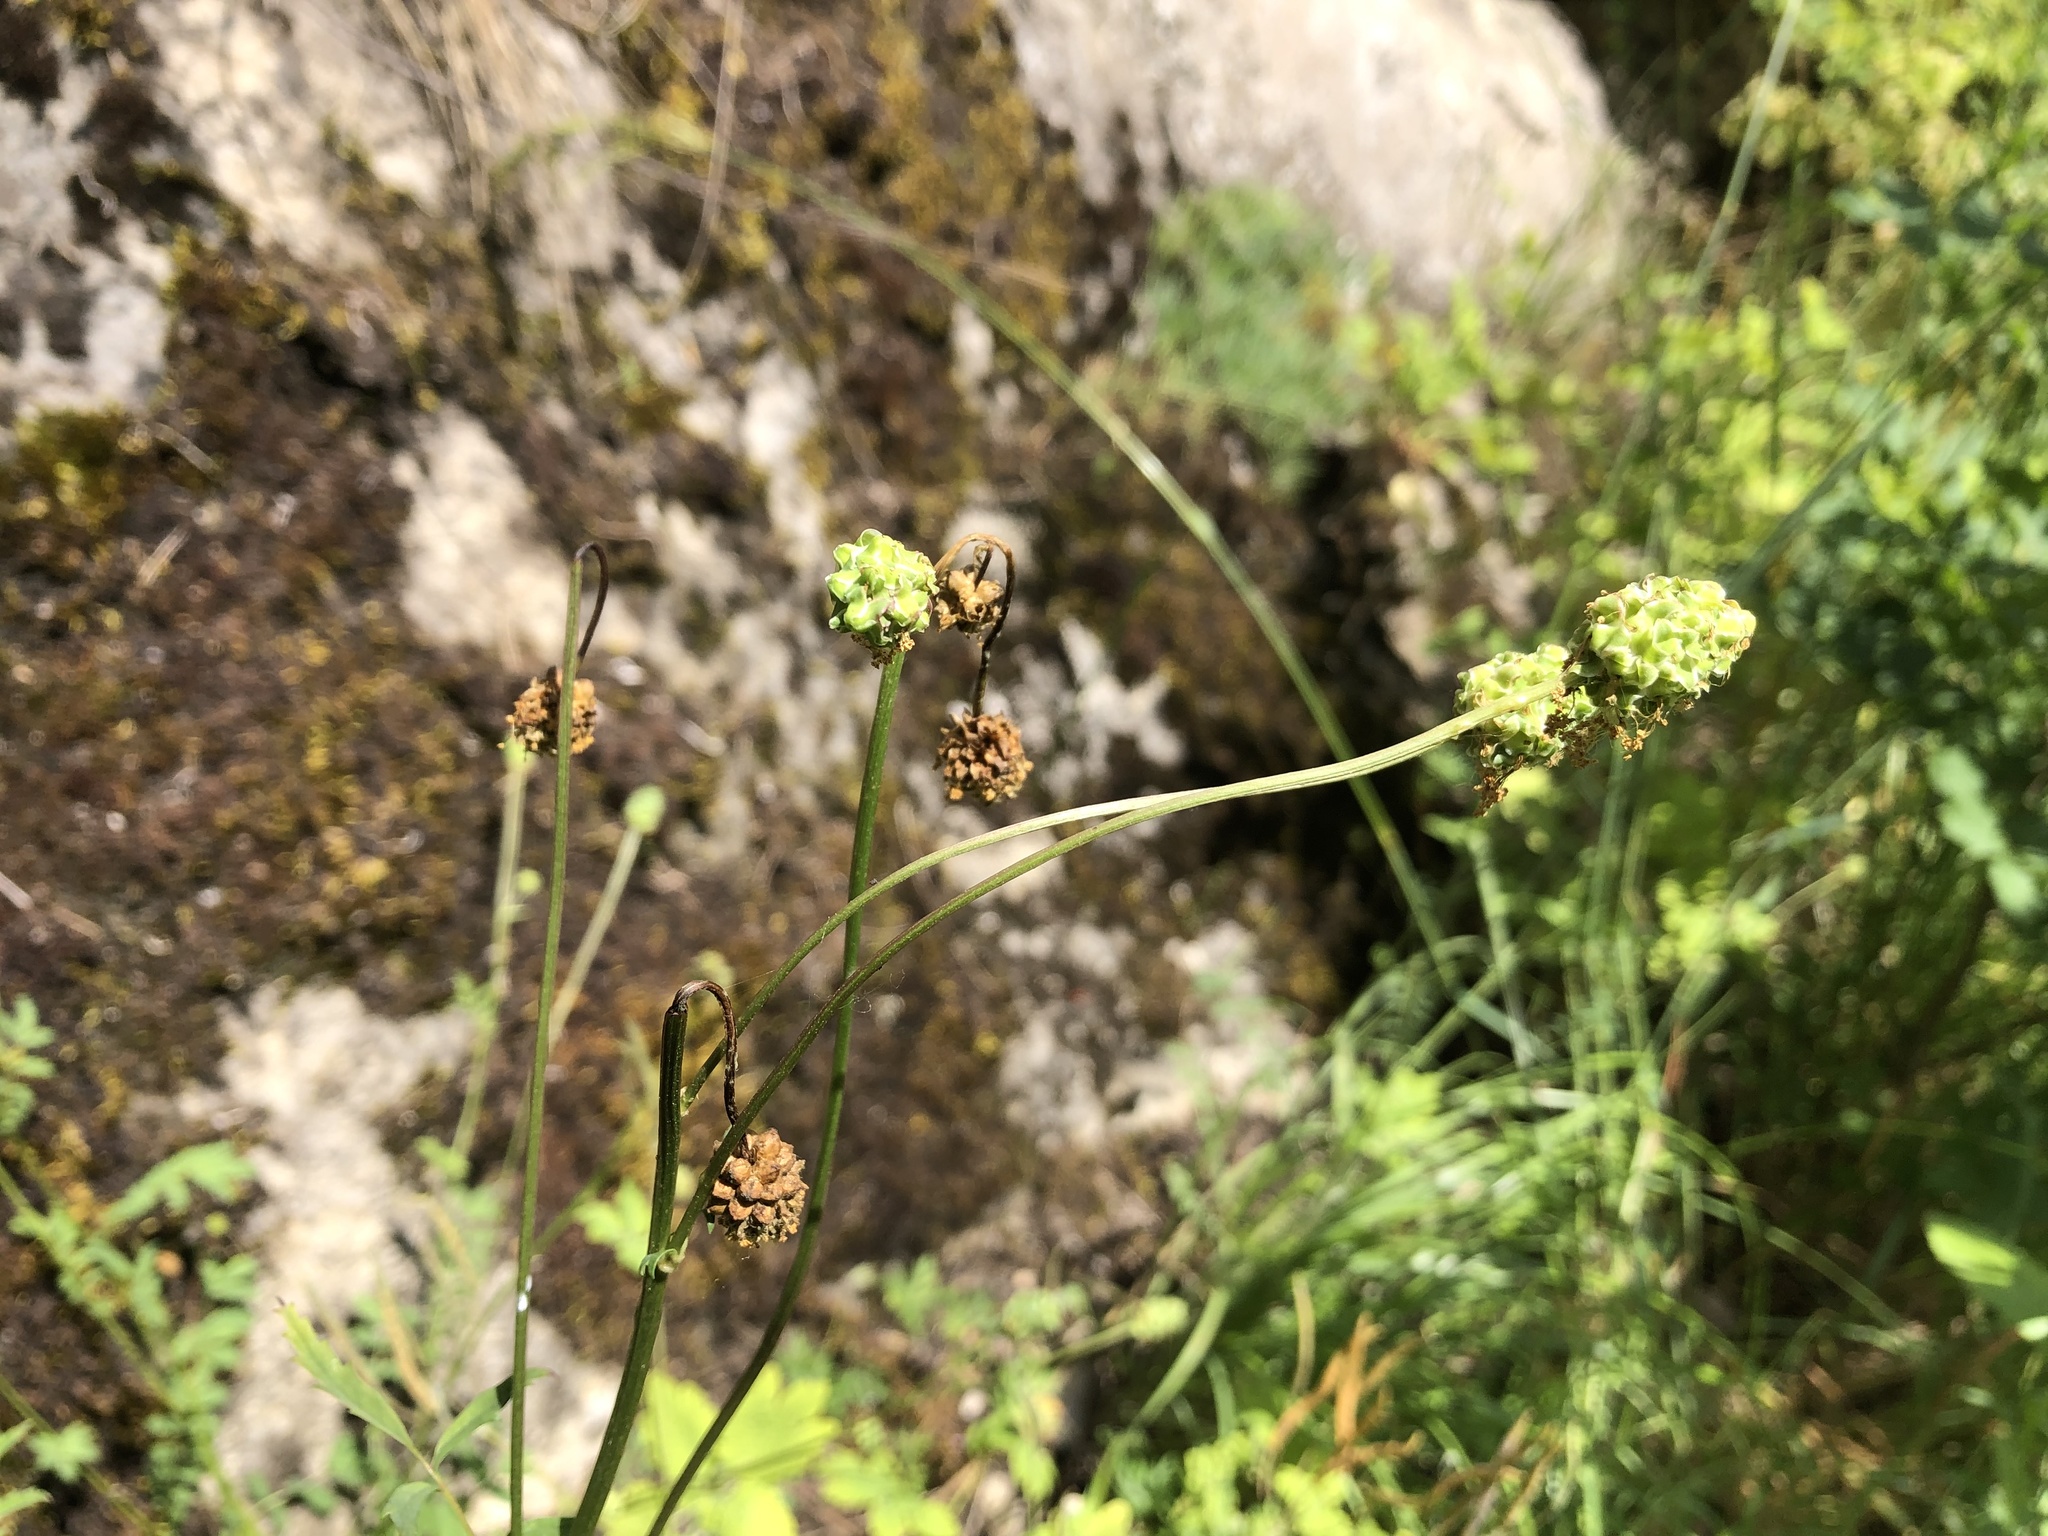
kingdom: Plantae
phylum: Tracheophyta
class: Magnoliopsida
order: Rosales
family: Rosaceae
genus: Poterium
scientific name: Poterium sanguisorba
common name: Salad burnet
